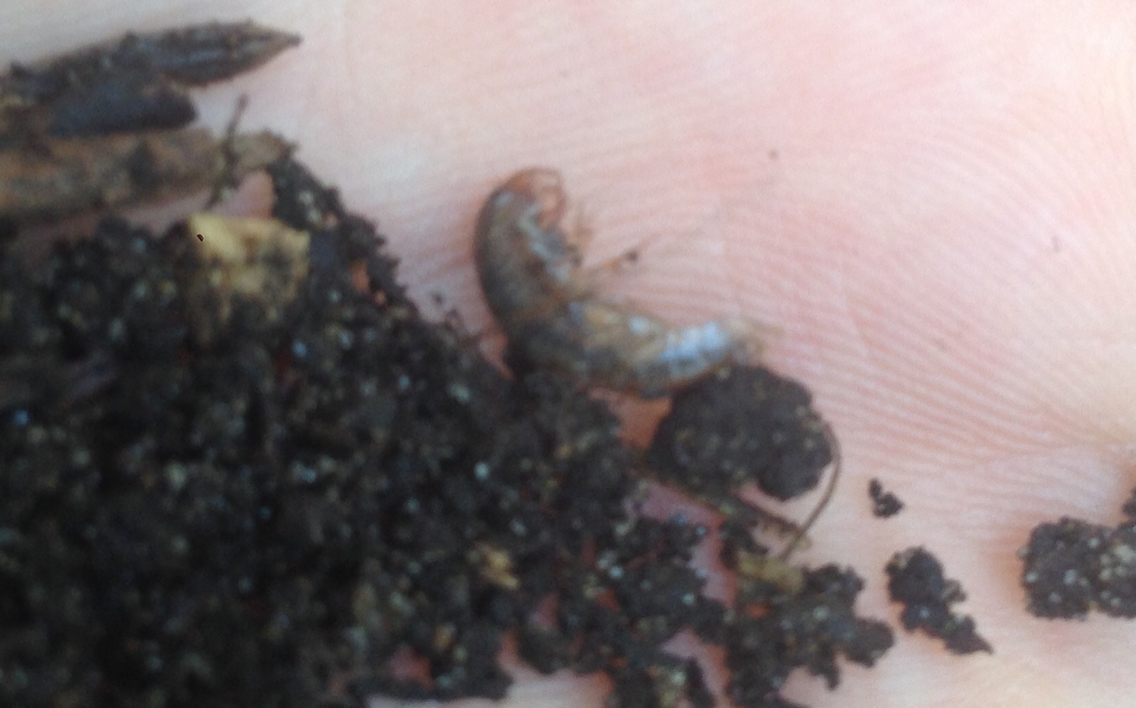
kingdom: Animalia
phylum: Arthropoda
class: Malacostraca
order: Amphipoda
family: Arcitalitridae
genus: Arcitalitrus
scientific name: Arcitalitrus sylvaticus
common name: Gammarid amphipod
